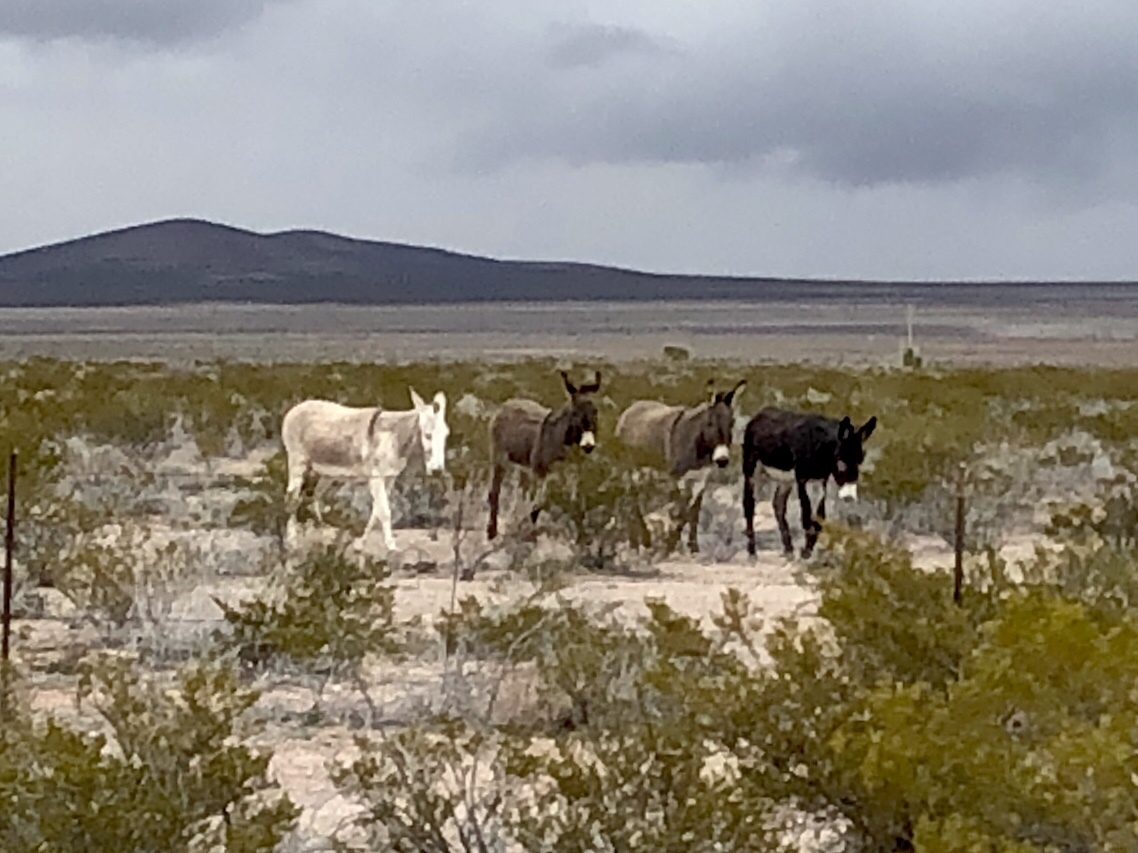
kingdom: Animalia
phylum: Chordata
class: Mammalia
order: Perissodactyla
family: Equidae
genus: Equus
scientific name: Equus asinus
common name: Ass
